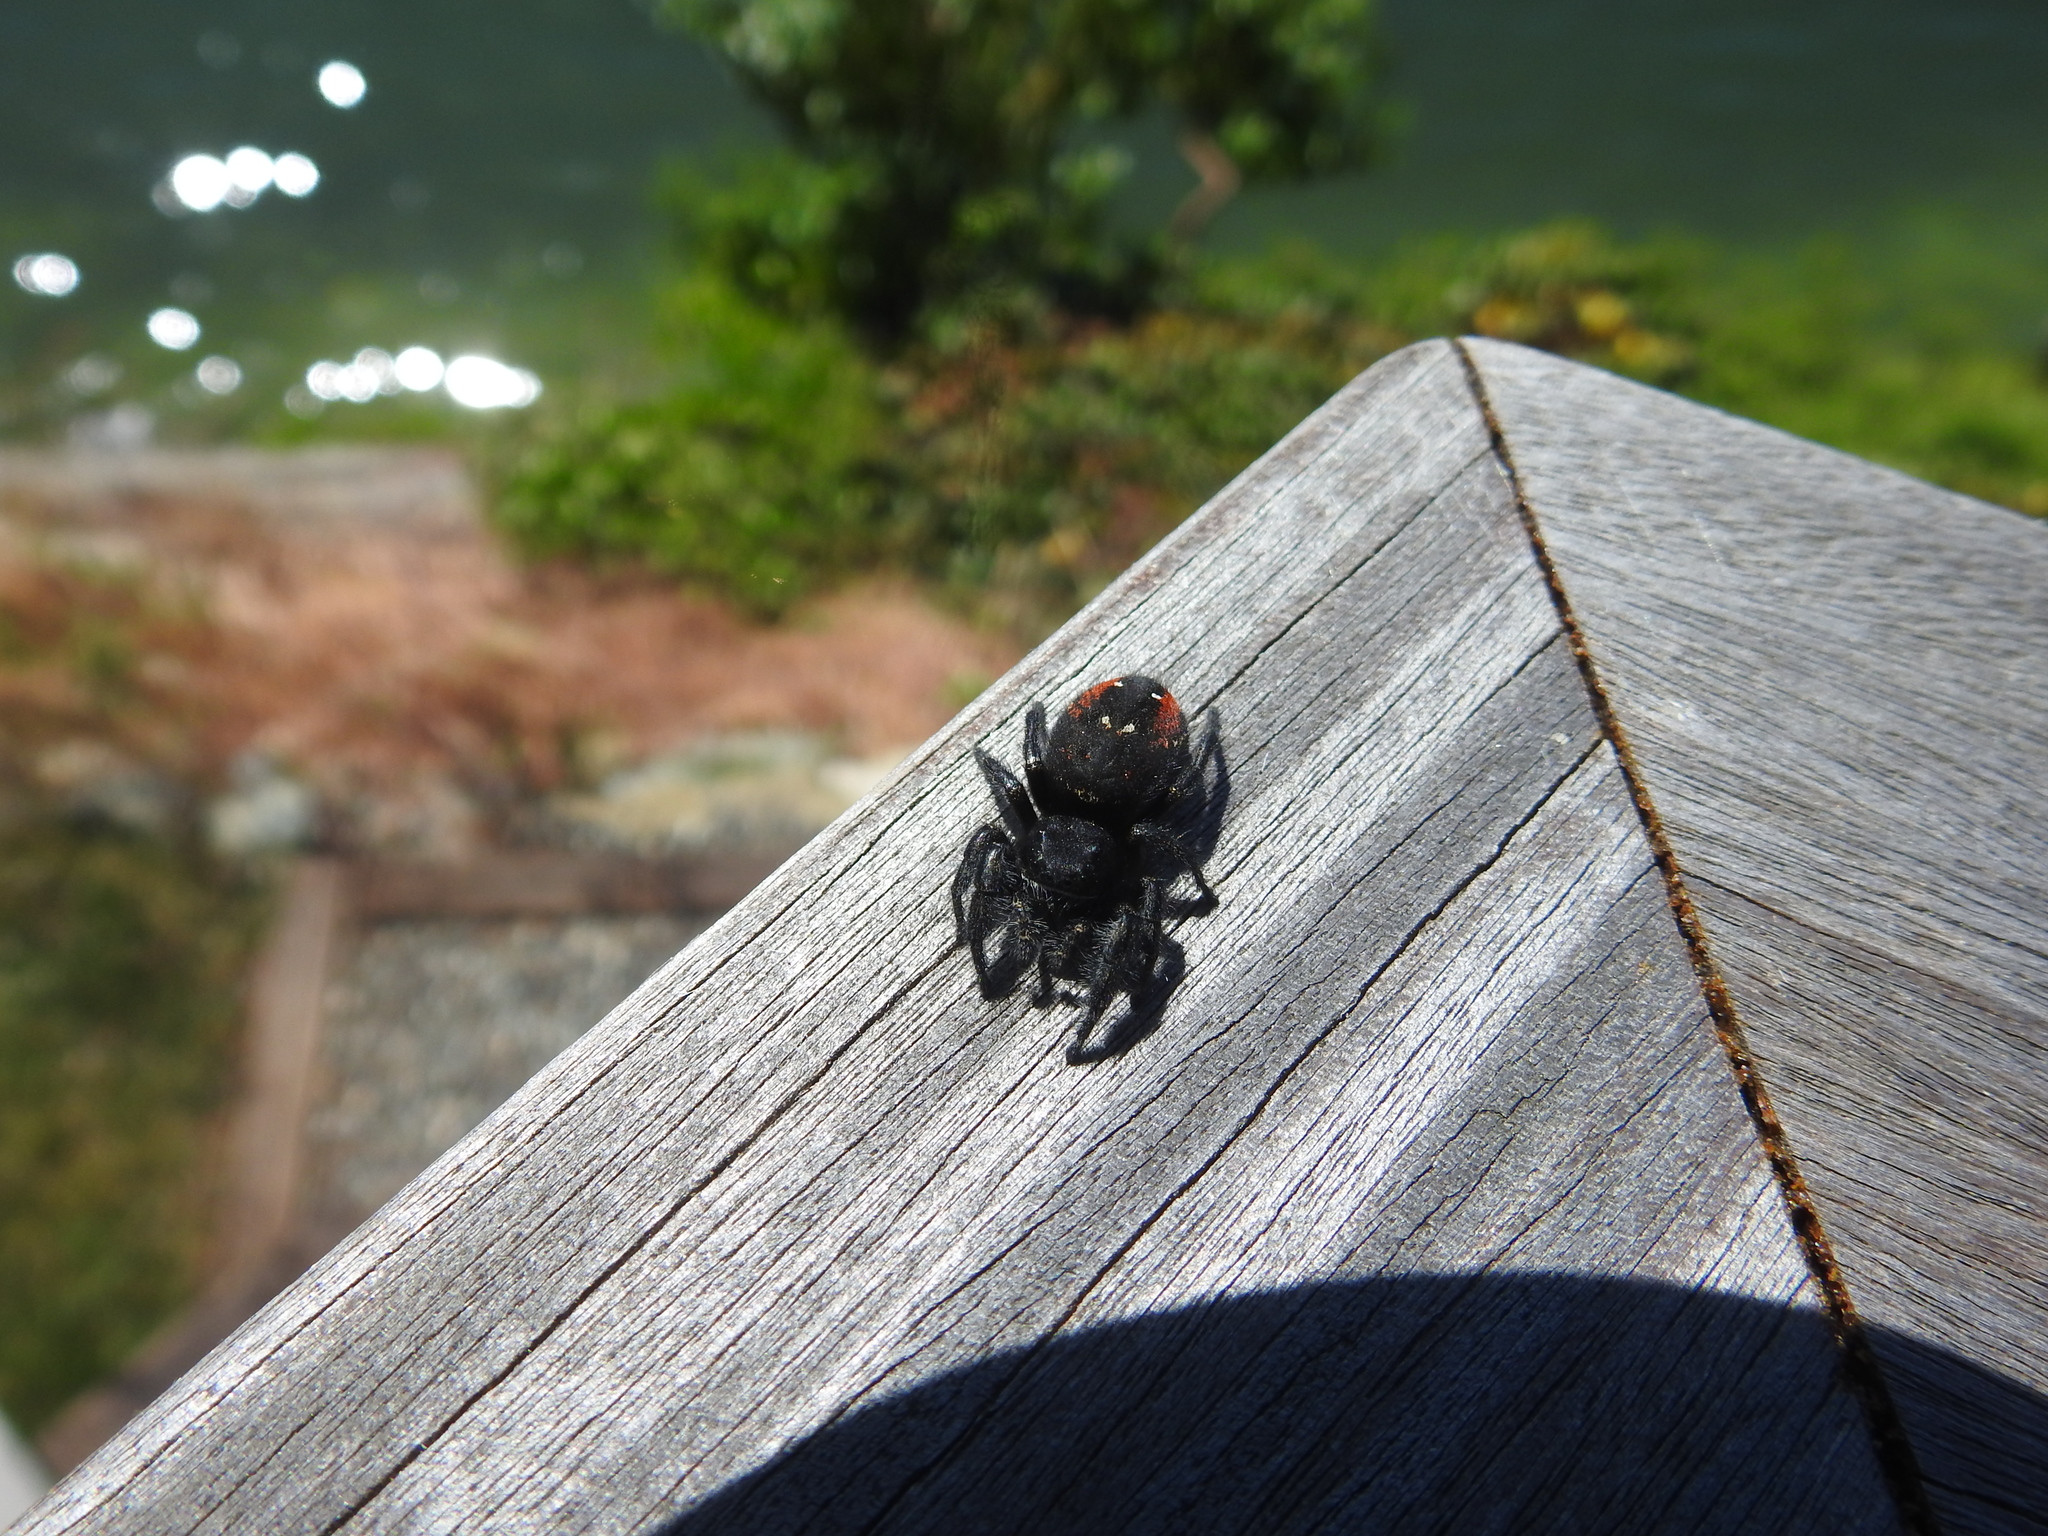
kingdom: Animalia
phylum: Arthropoda
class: Arachnida
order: Araneae
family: Salticidae
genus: Phidippus
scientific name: Phidippus johnsoni
